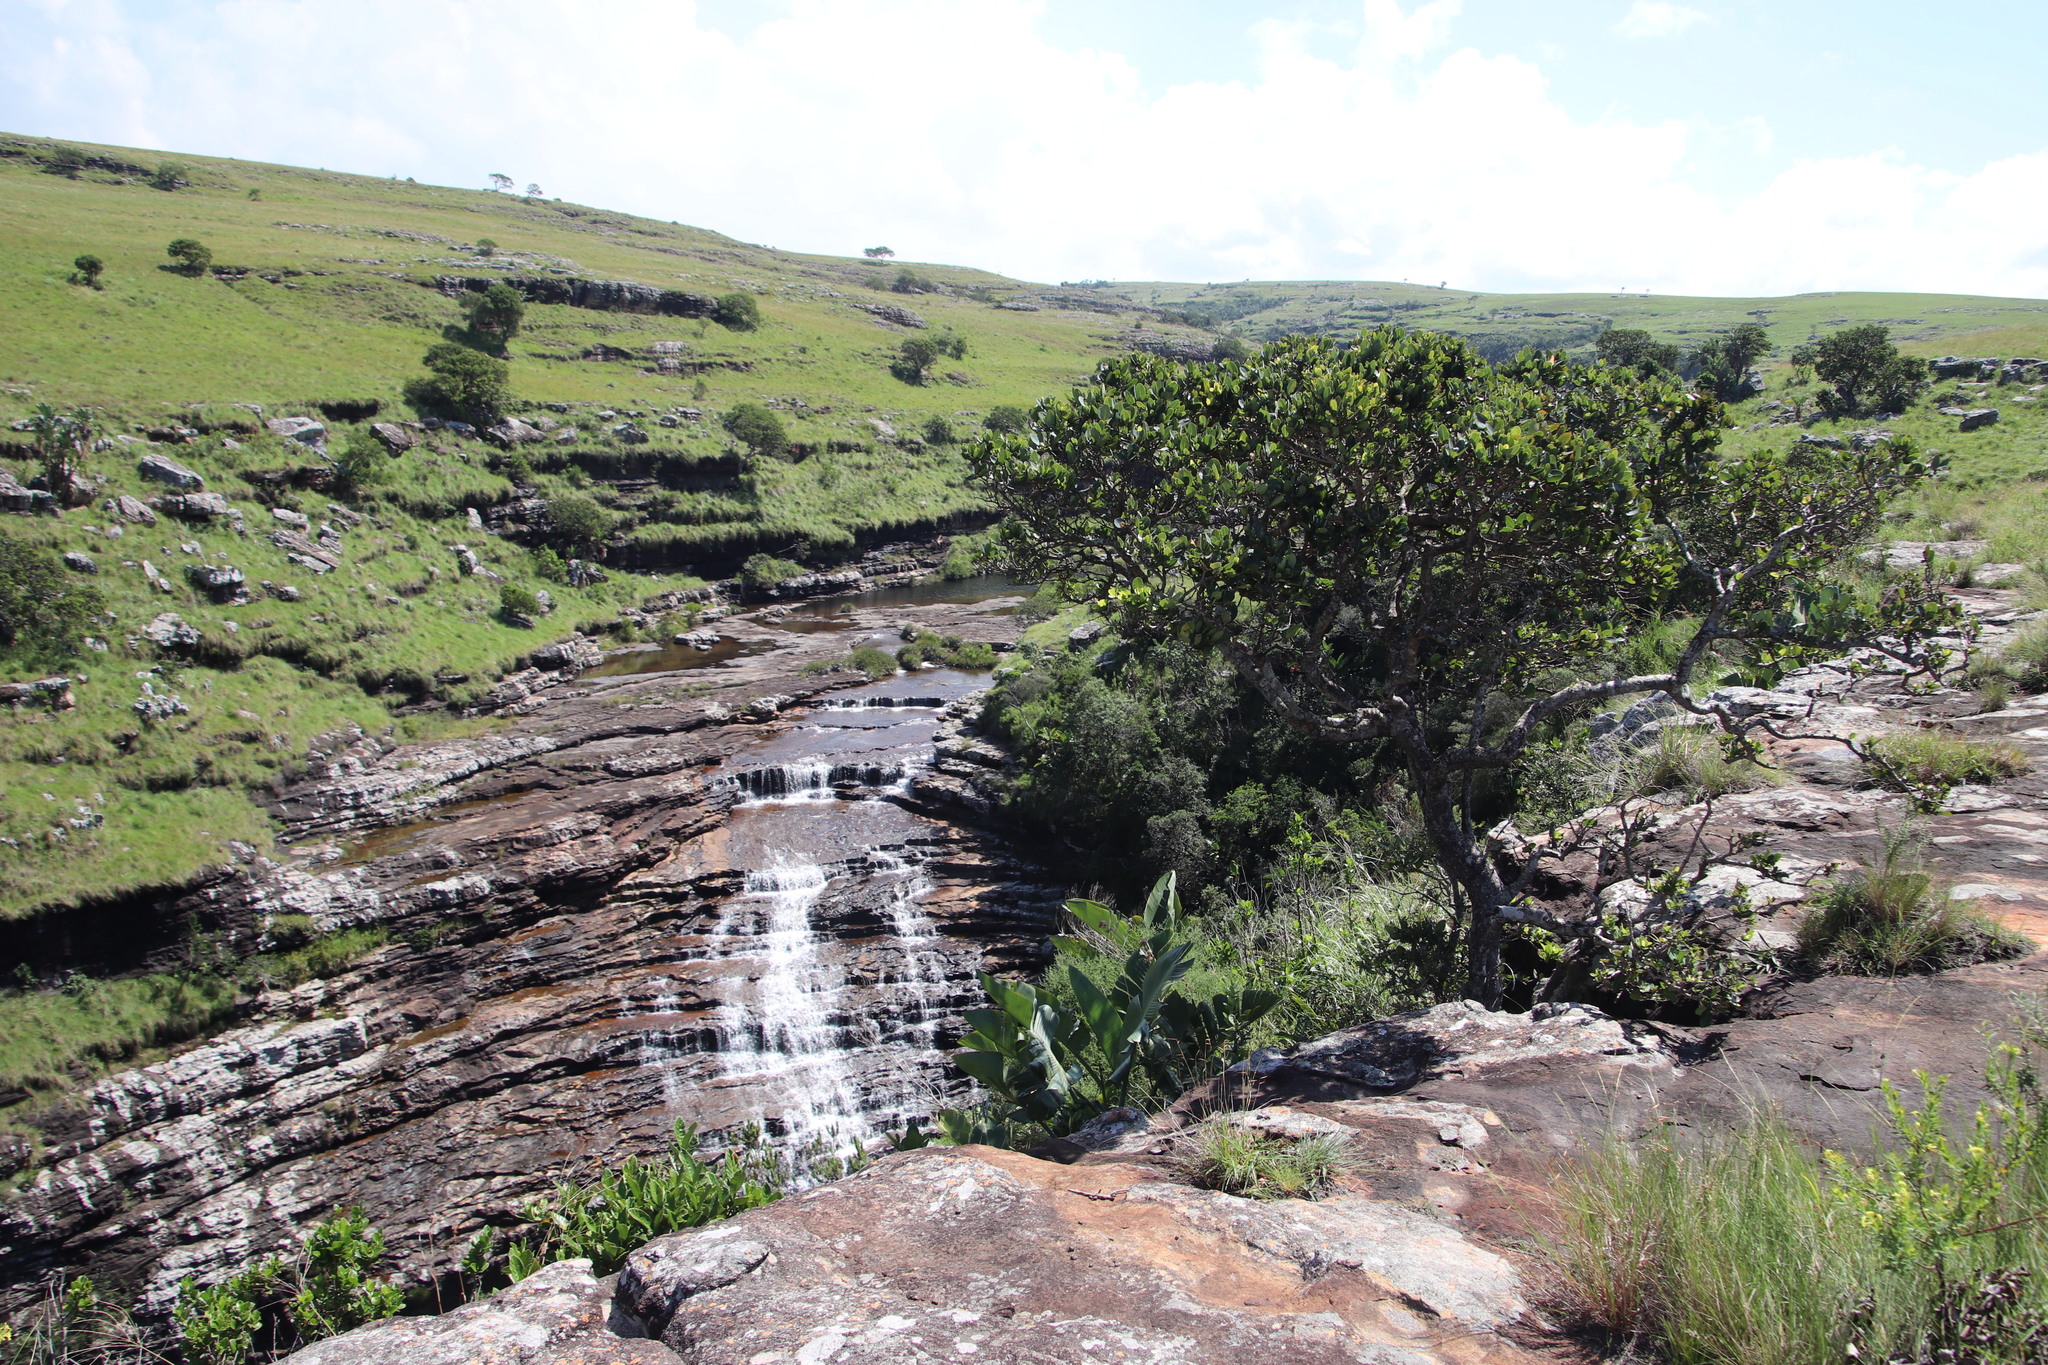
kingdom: Plantae
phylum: Tracheophyta
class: Magnoliopsida
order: Myrtales
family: Myrtaceae
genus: Syzygium
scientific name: Syzygium cordatum
